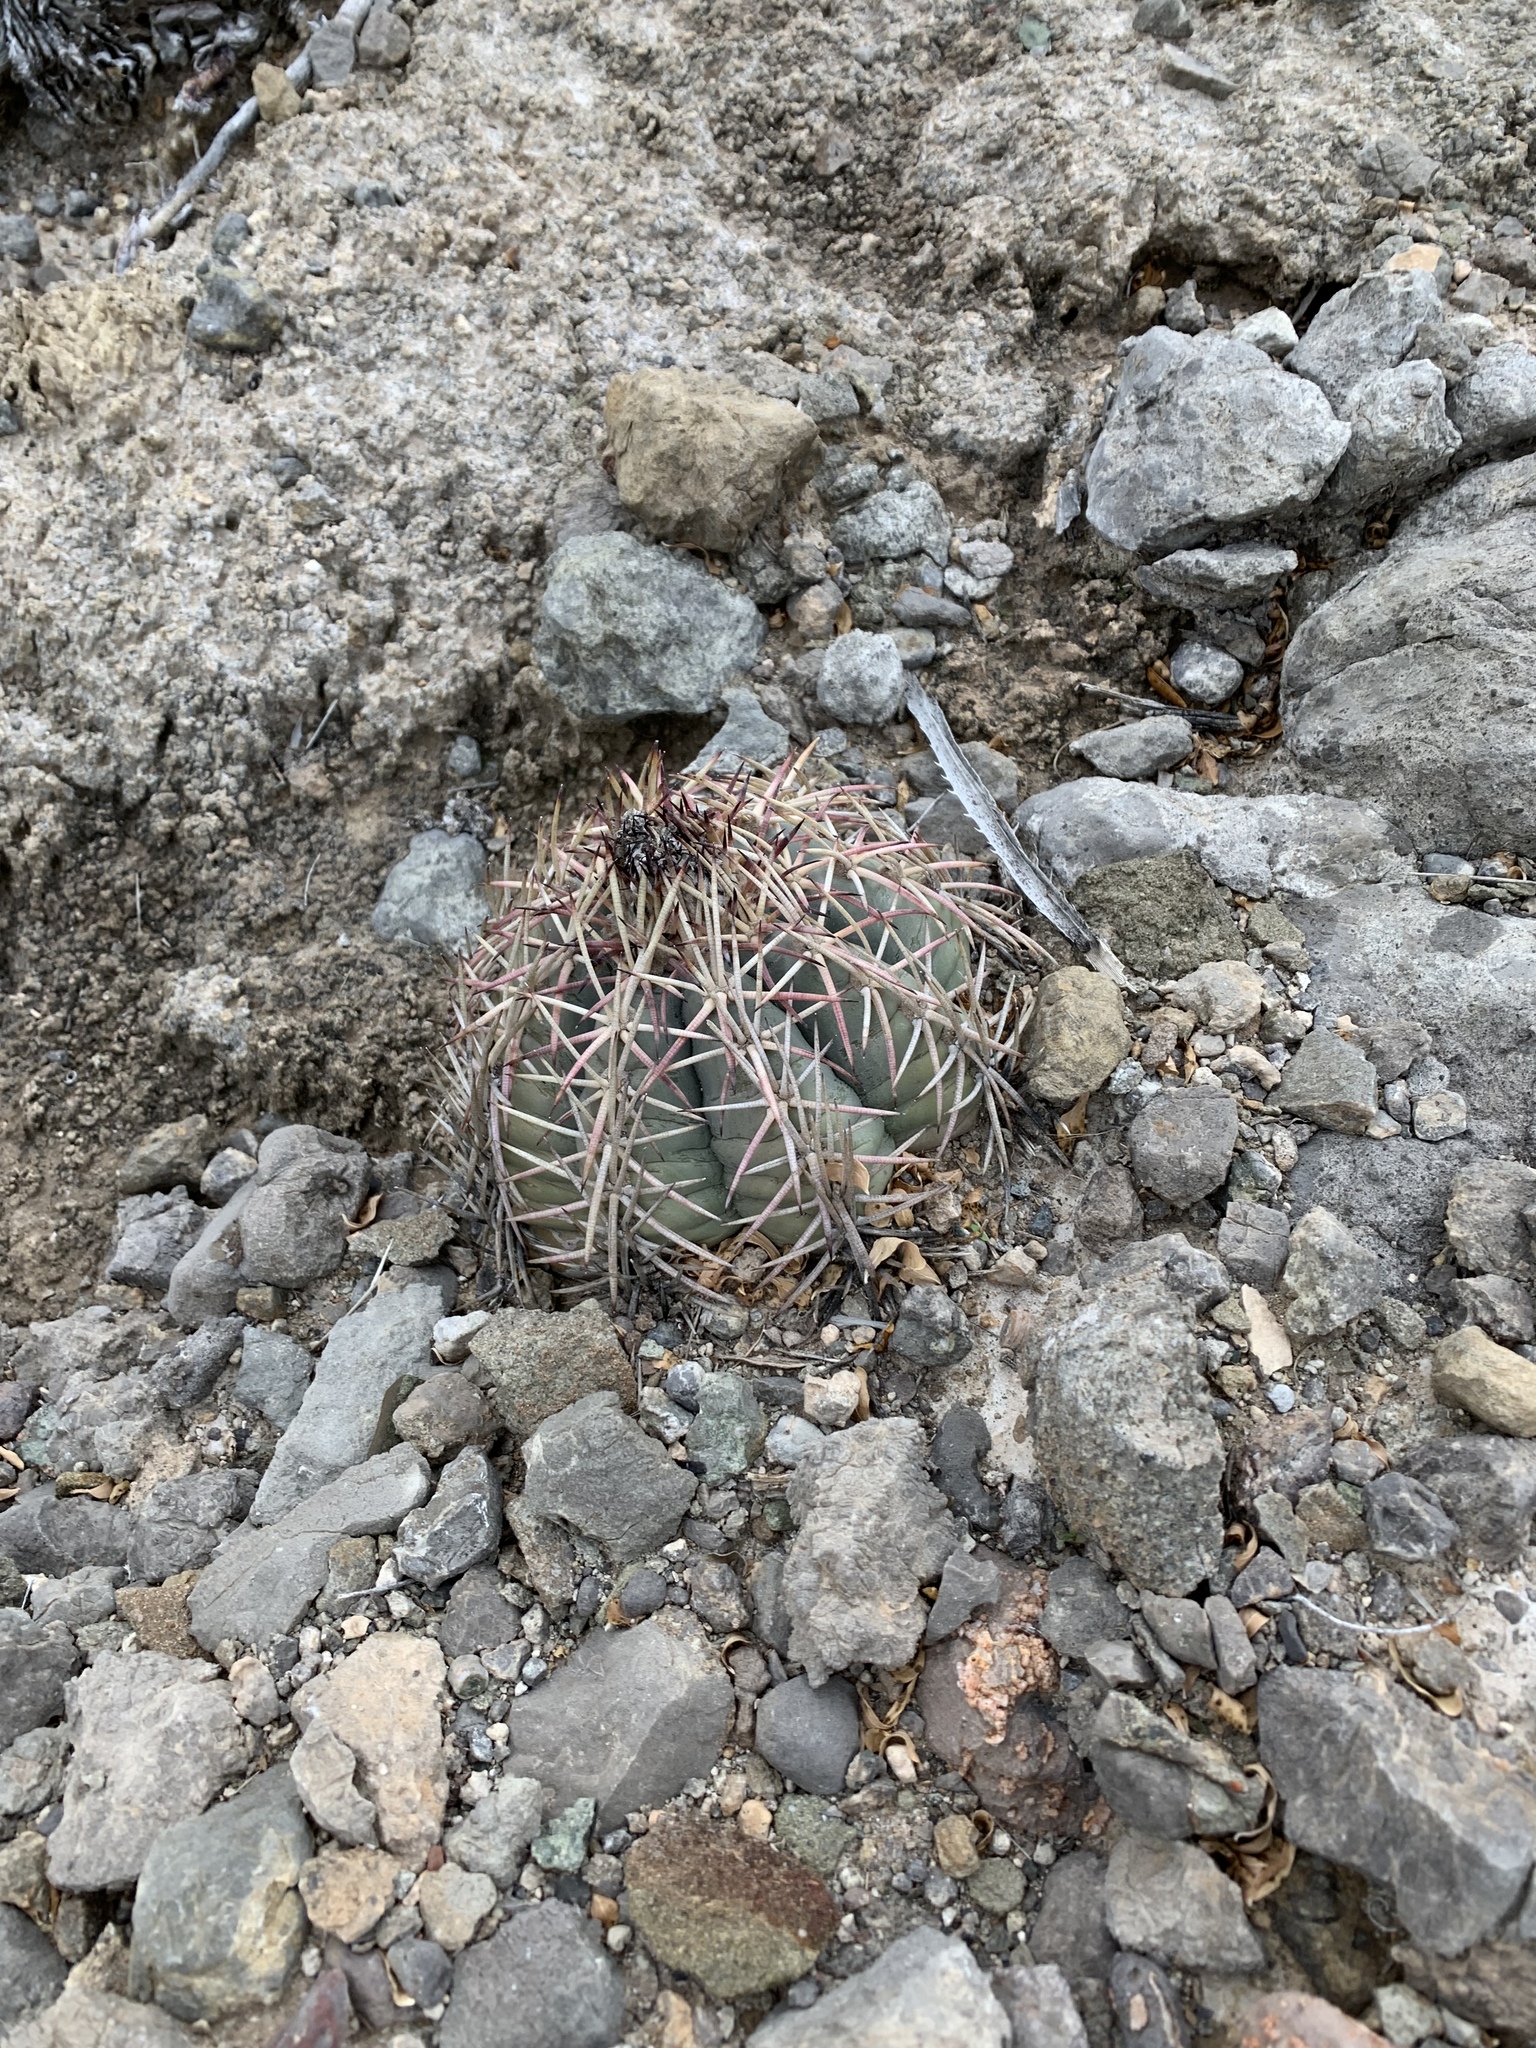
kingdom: Plantae
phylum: Tracheophyta
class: Magnoliopsida
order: Caryophyllales
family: Cactaceae
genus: Echinocactus
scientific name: Echinocactus horizonthalonius
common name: Devilshead
